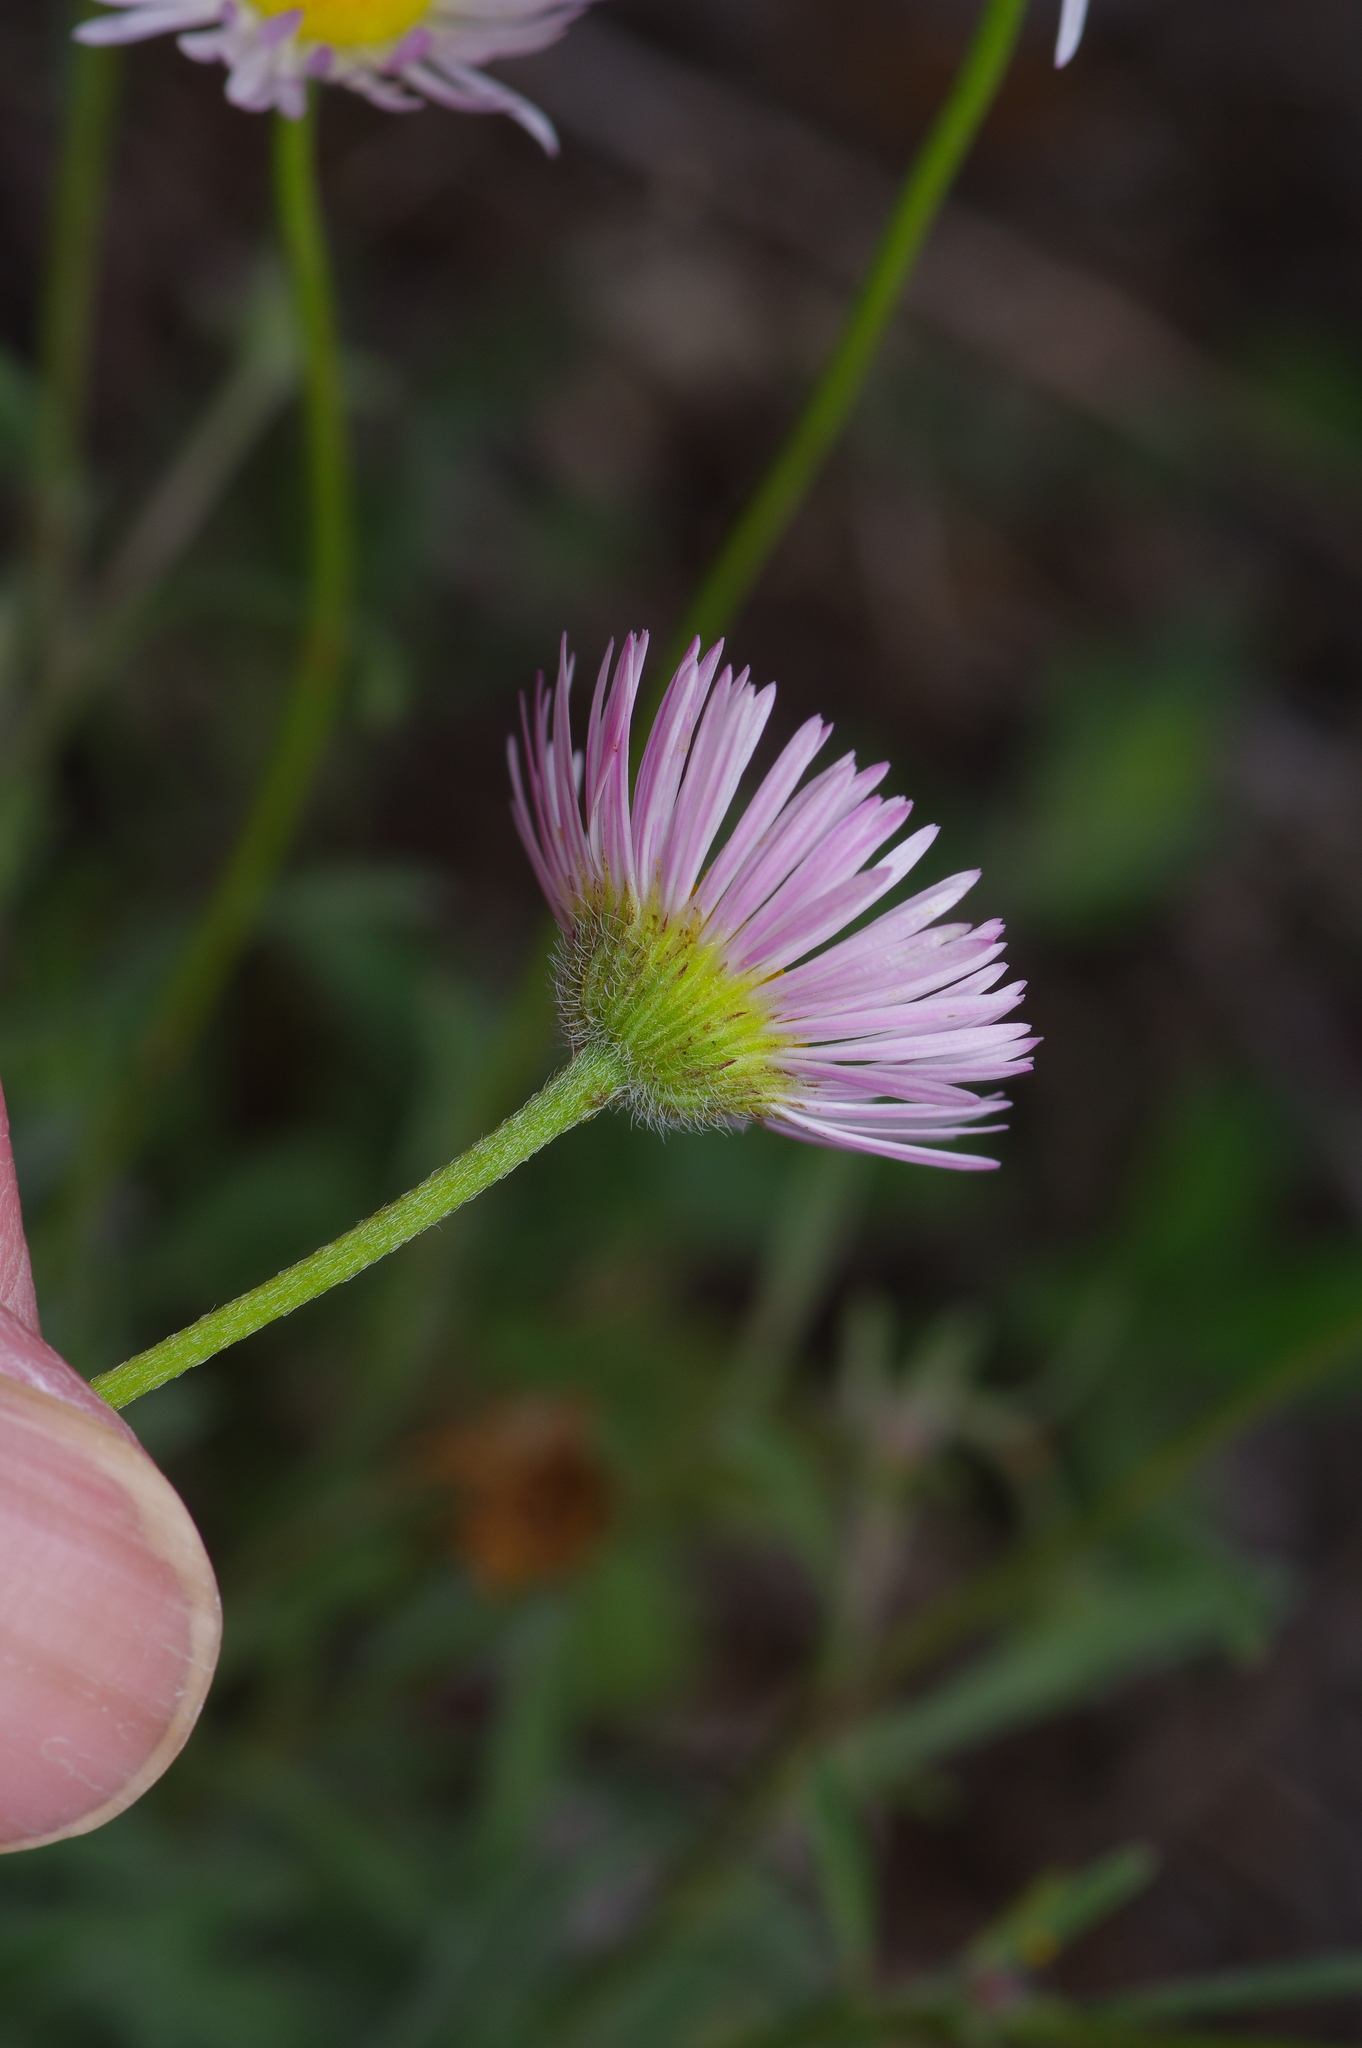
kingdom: Plantae
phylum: Tracheophyta
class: Magnoliopsida
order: Asterales
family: Asteraceae
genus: Erigeron
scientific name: Erigeron modestus
